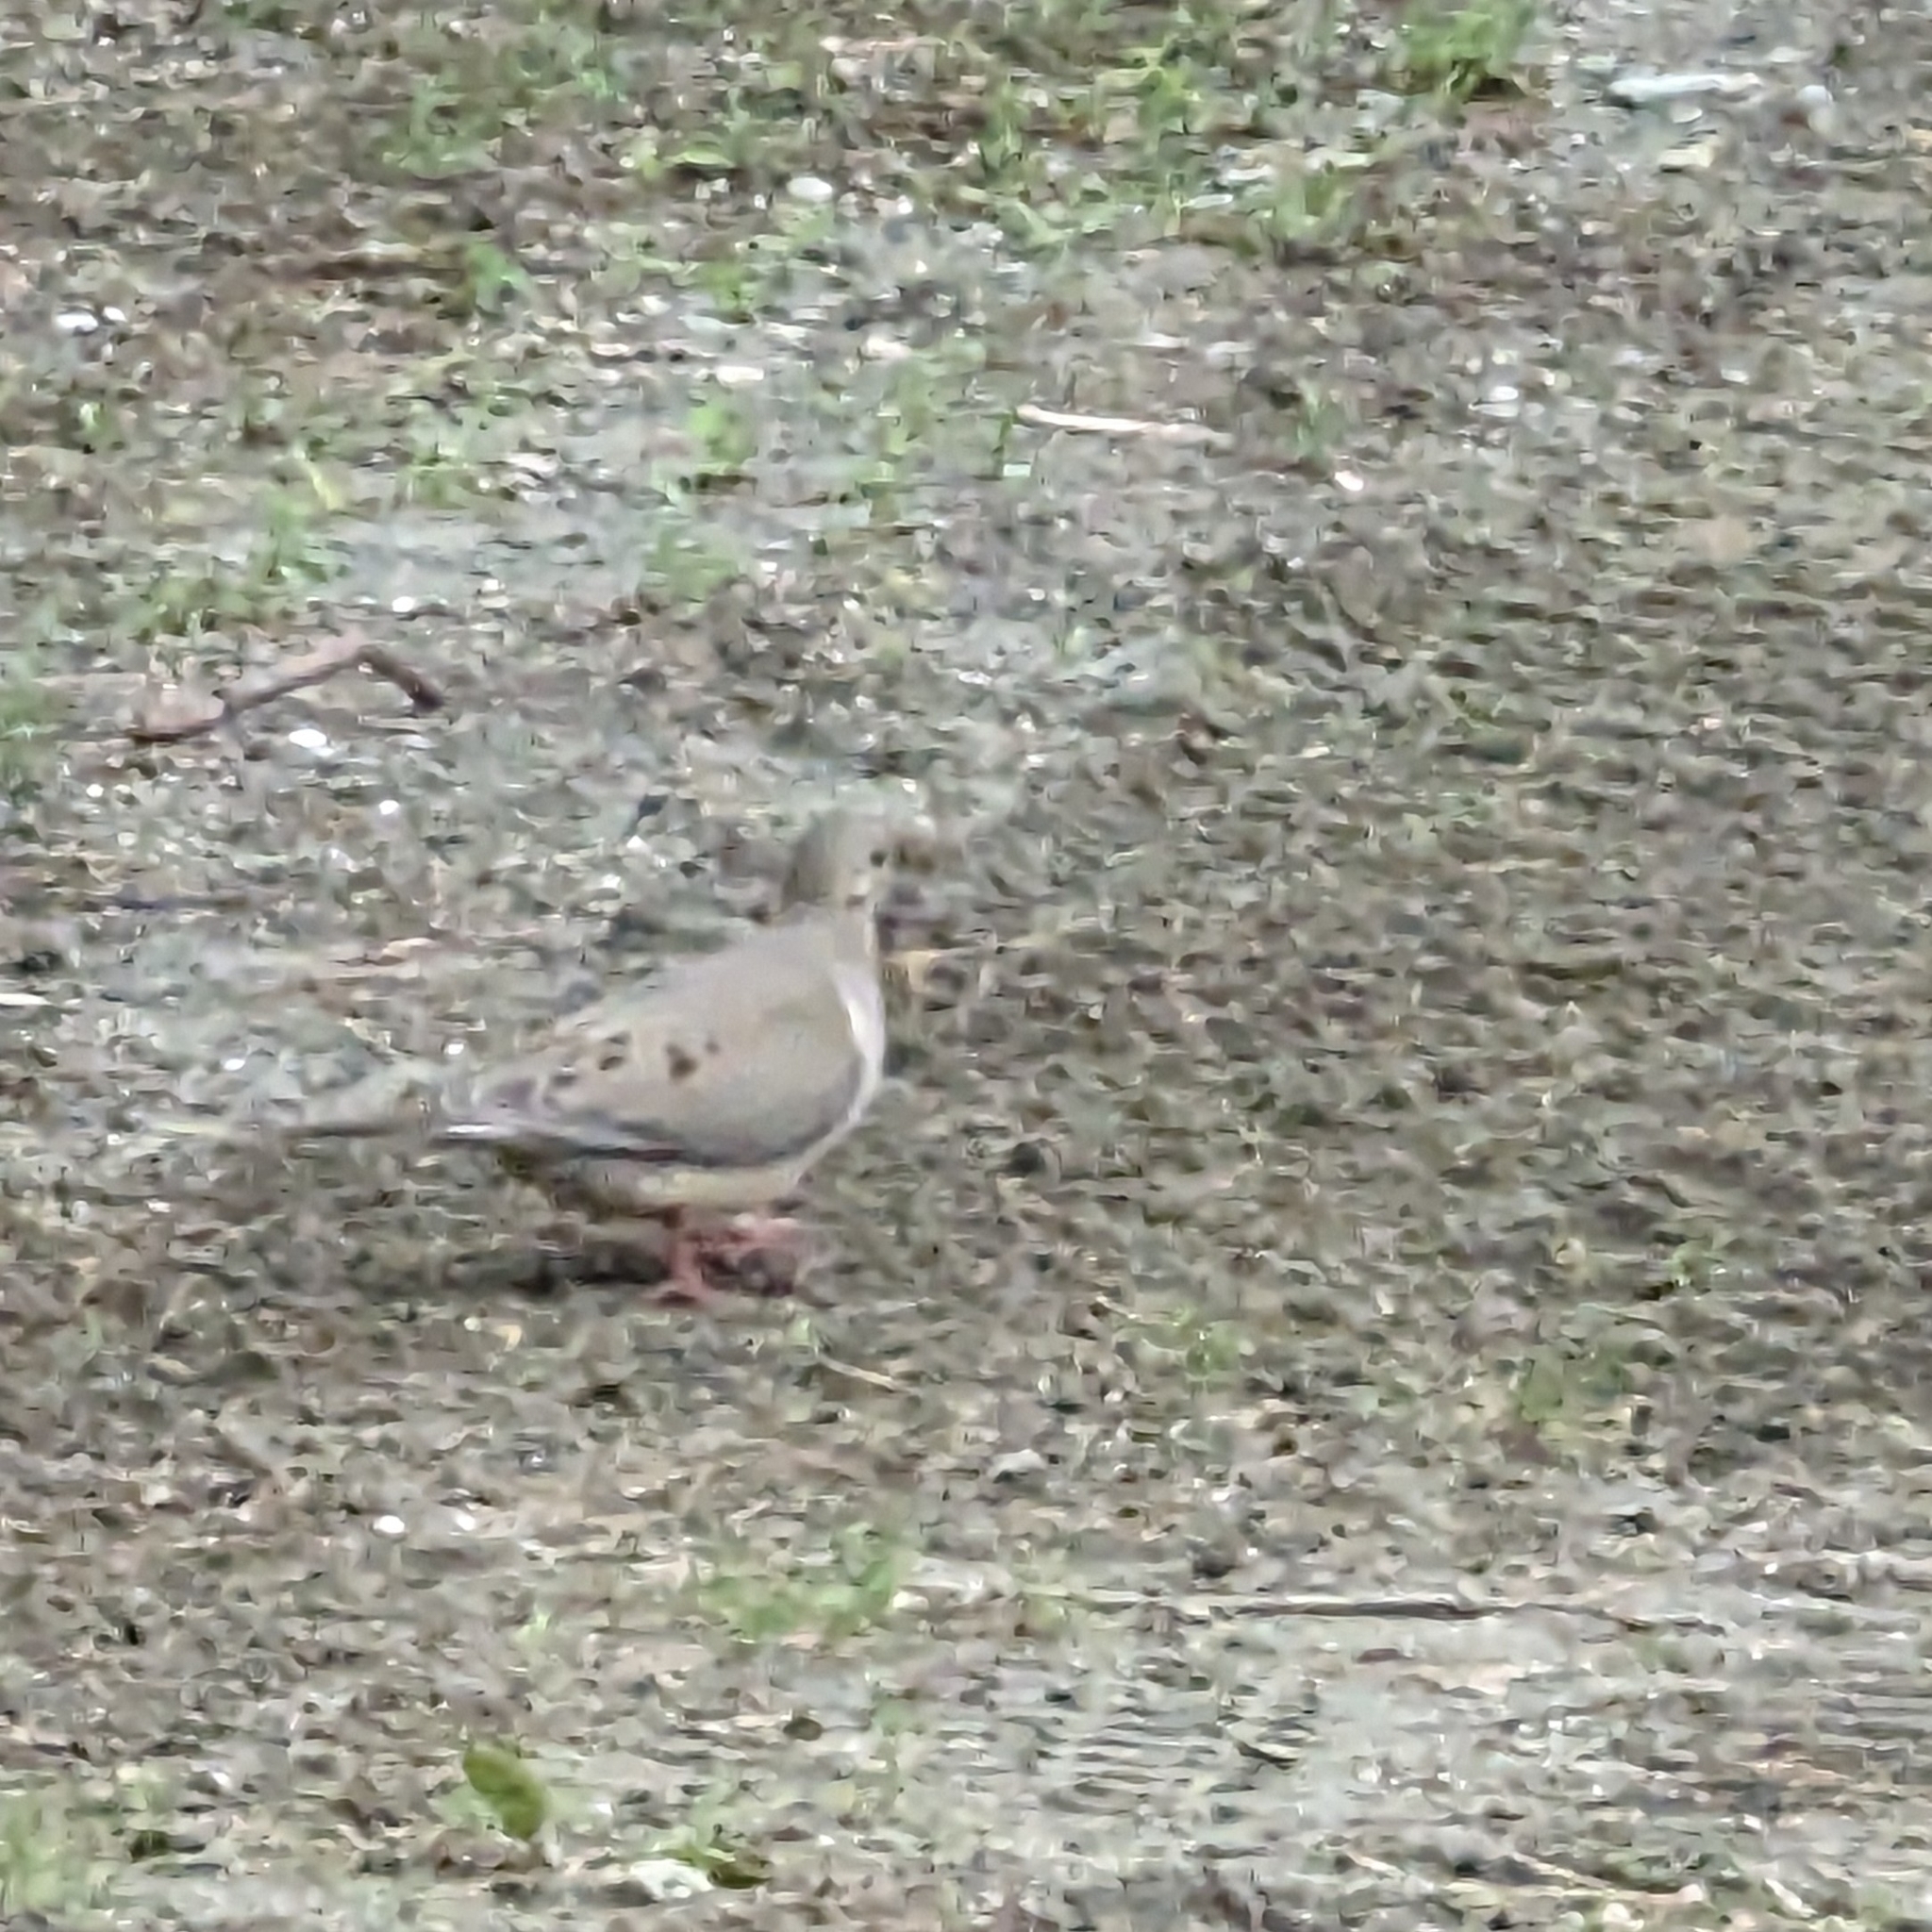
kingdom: Animalia
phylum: Chordata
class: Aves
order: Columbiformes
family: Columbidae
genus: Zenaida
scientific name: Zenaida macroura
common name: Mourning dove
